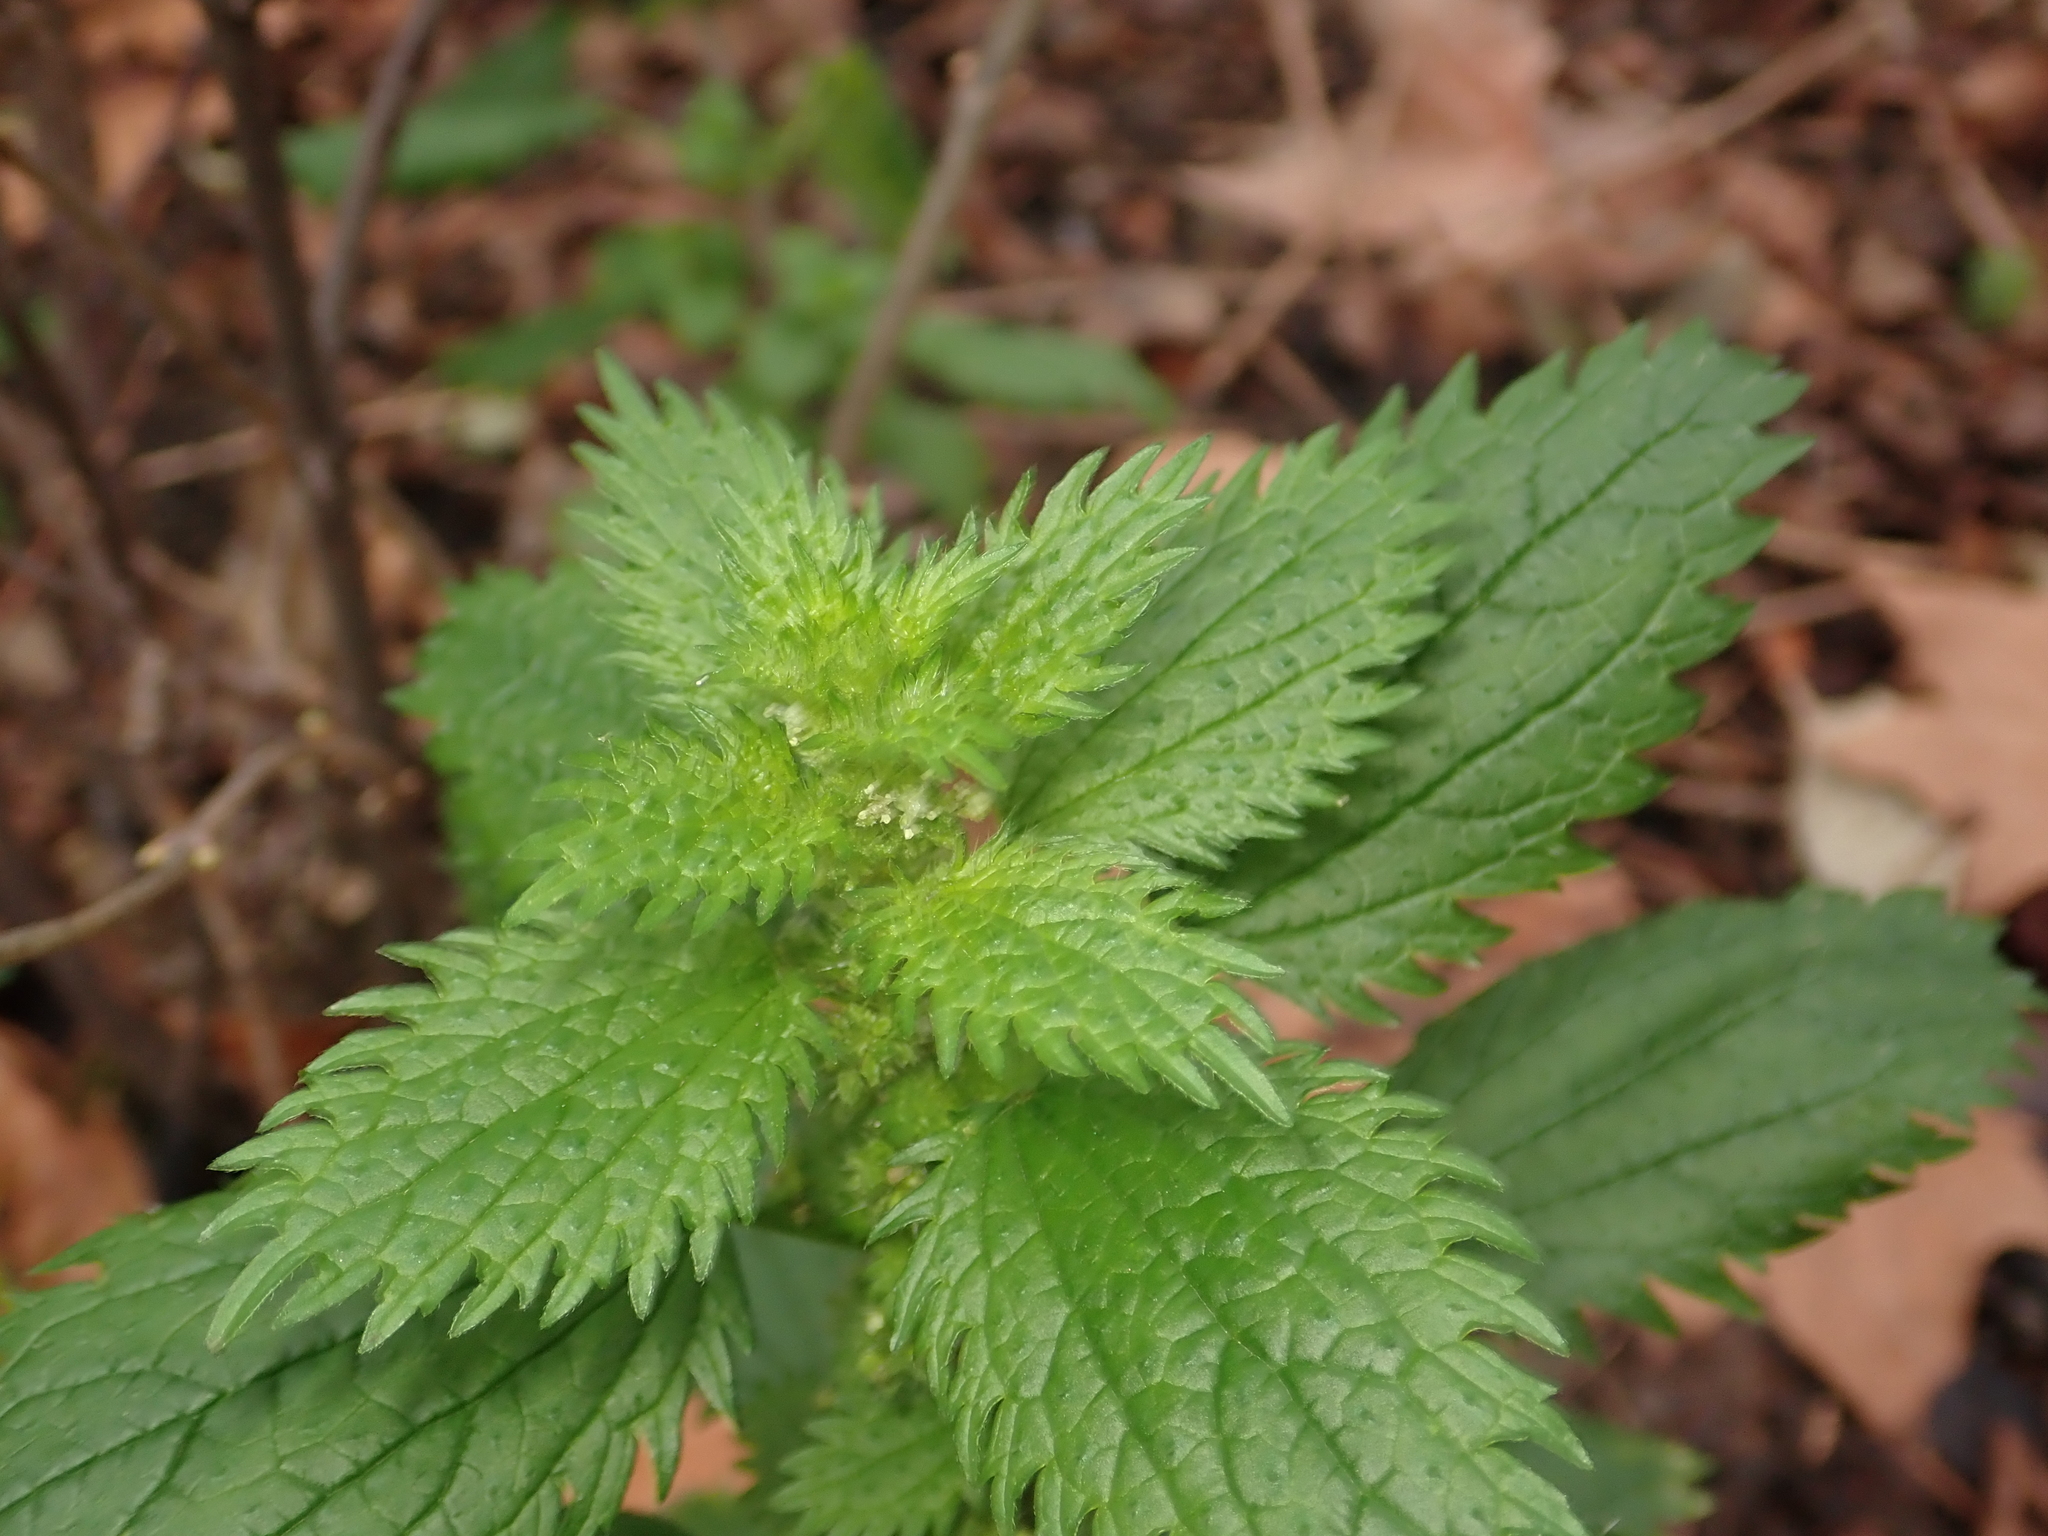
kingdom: Plantae
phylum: Tracheophyta
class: Magnoliopsida
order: Rosales
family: Urticaceae
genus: Urtica
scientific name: Urtica urens
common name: Dwarf nettle
